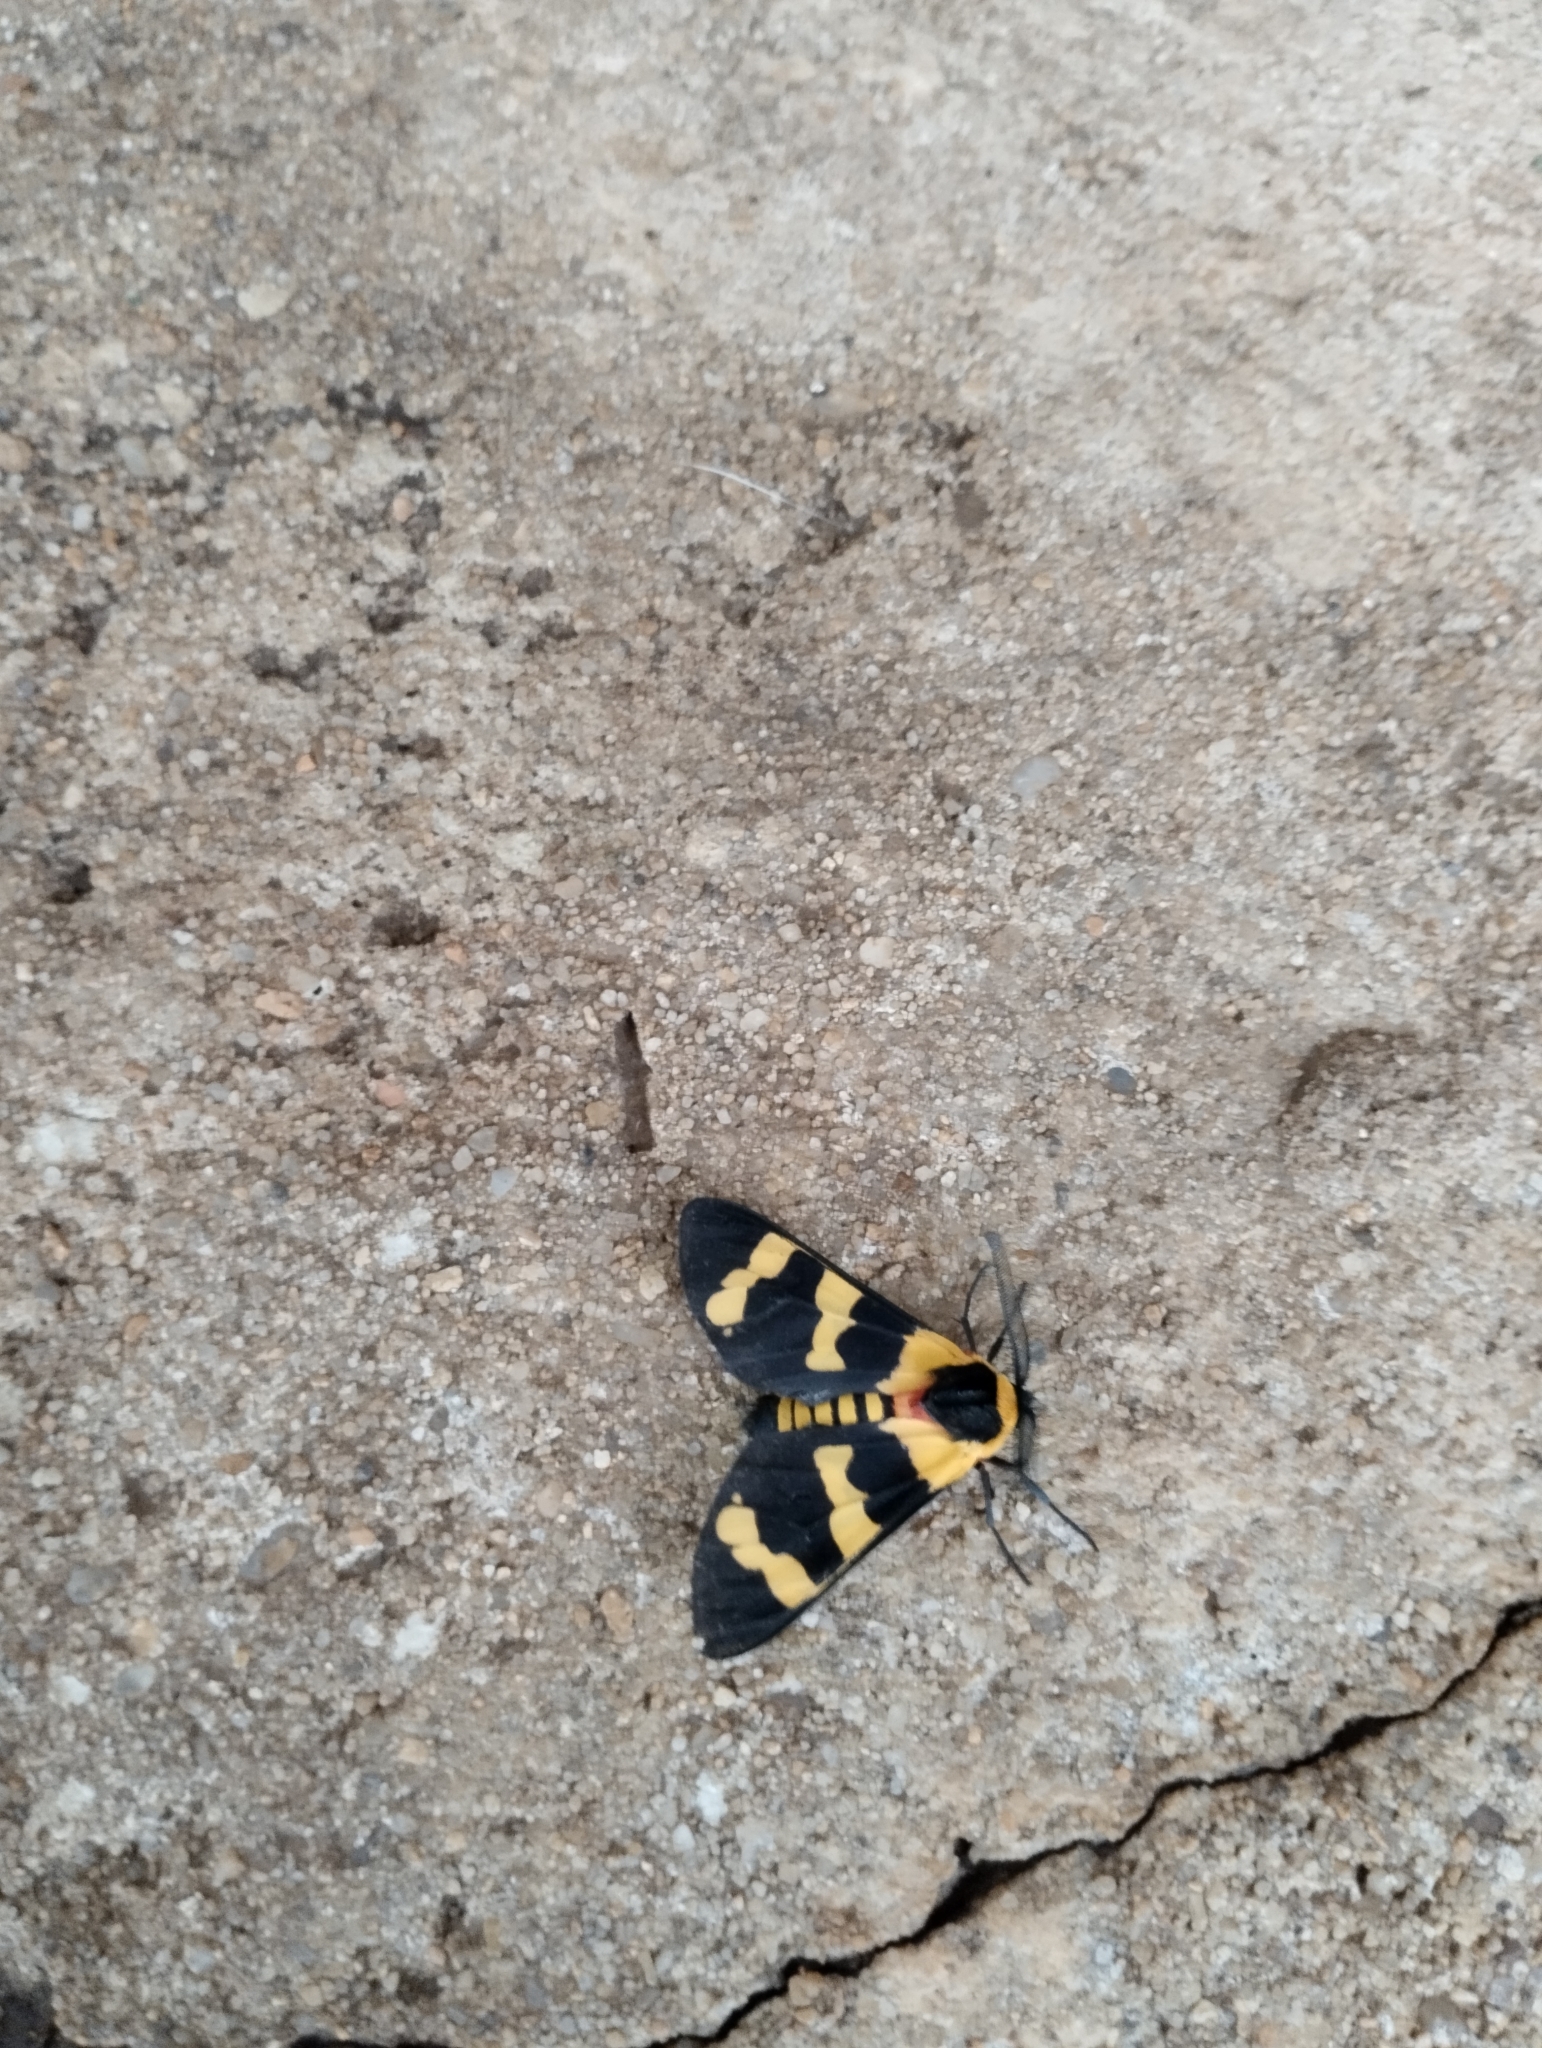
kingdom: Animalia
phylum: Arthropoda
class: Insecta
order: Lepidoptera
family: Erebidae
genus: Eurata
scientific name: Eurata hilaris
